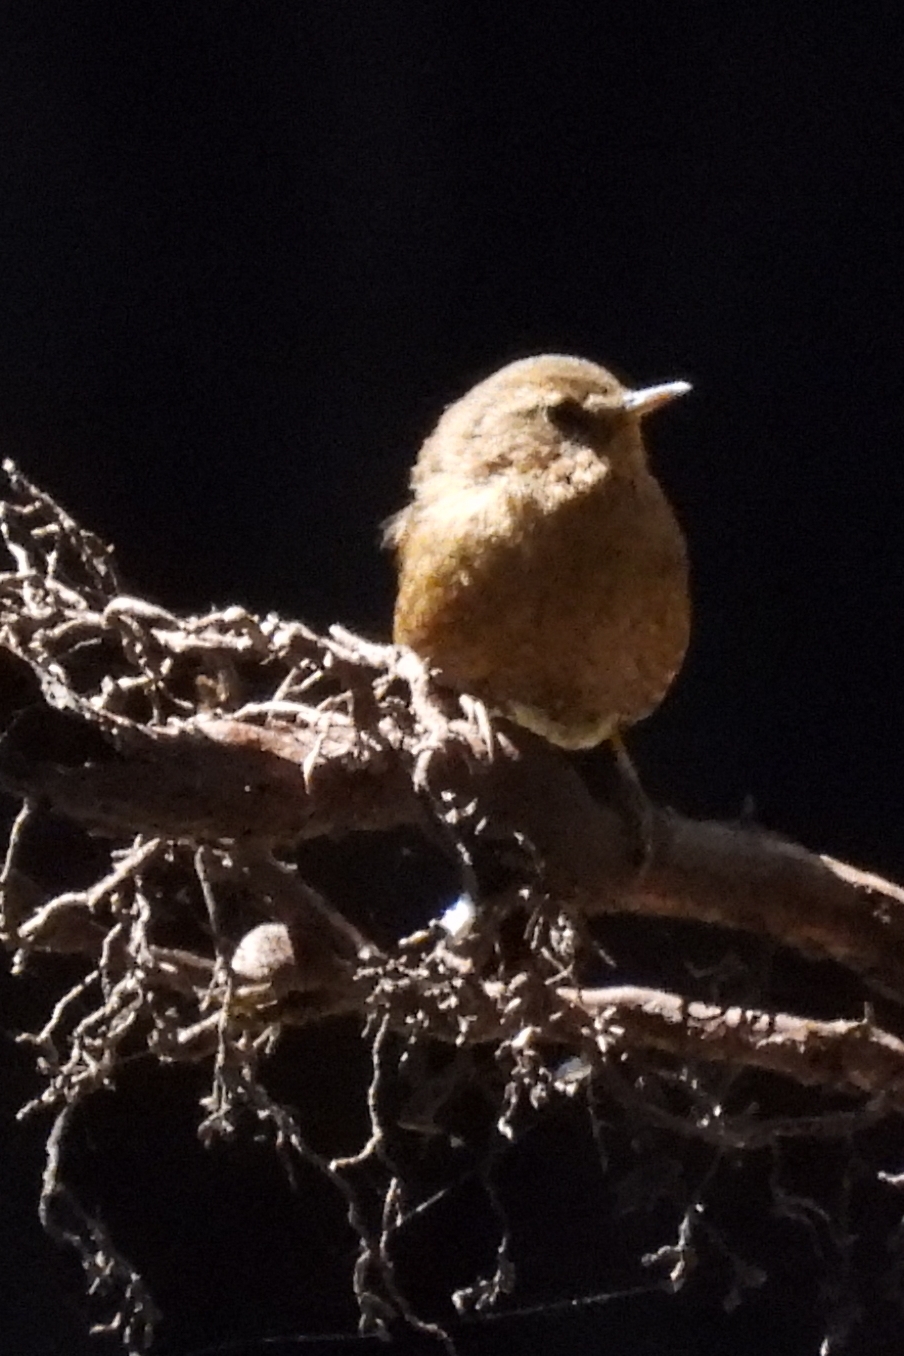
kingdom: Animalia
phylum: Chordata
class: Aves
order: Passeriformes
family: Troglodytidae
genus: Troglodytes
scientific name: Troglodytes pacificus
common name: Pacific wren
